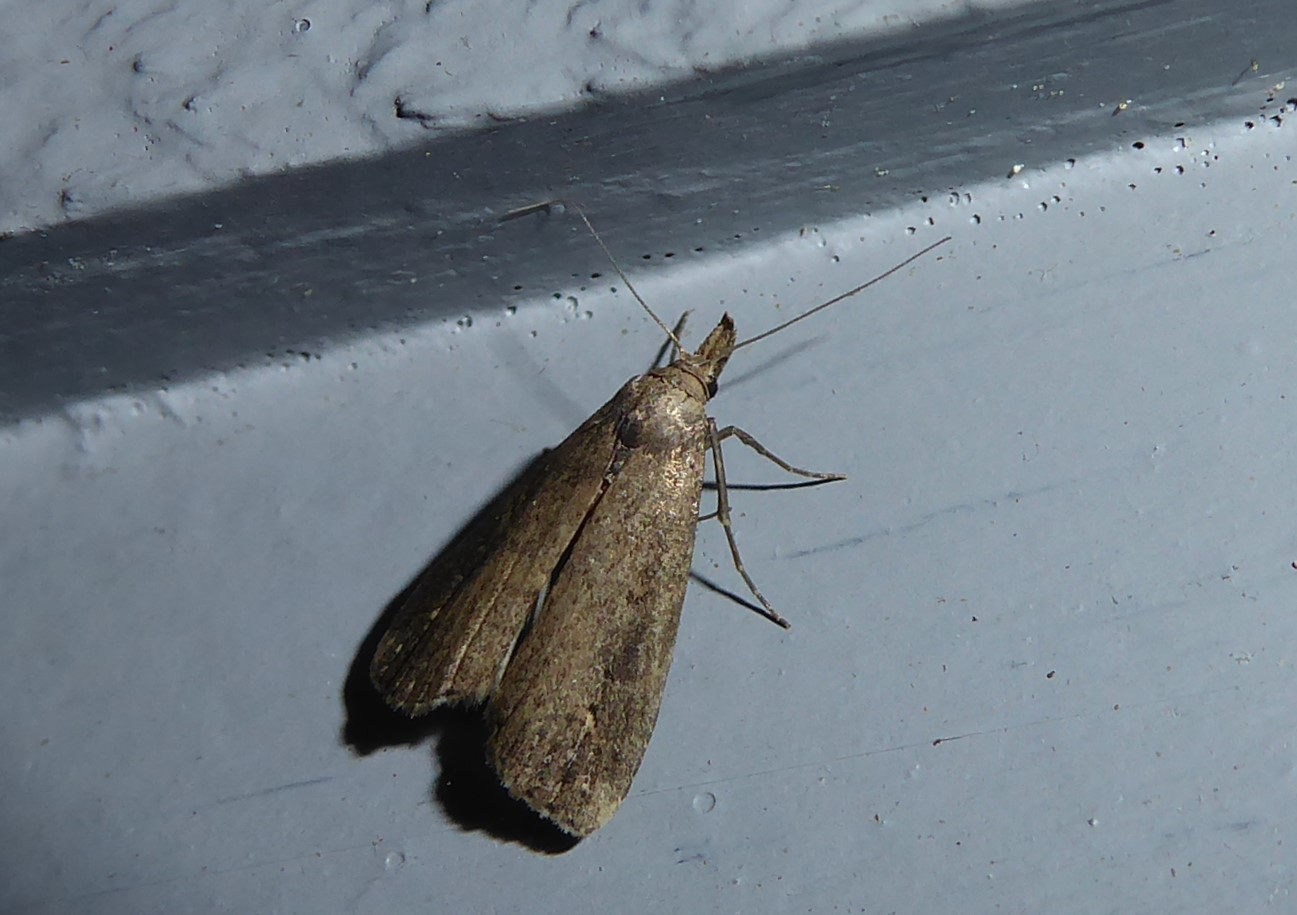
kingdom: Animalia
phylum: Arthropoda
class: Insecta
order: Lepidoptera
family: Erebidae
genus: Schrankia
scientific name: Schrankia costaestrigalis
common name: Pinion-streaked snout
